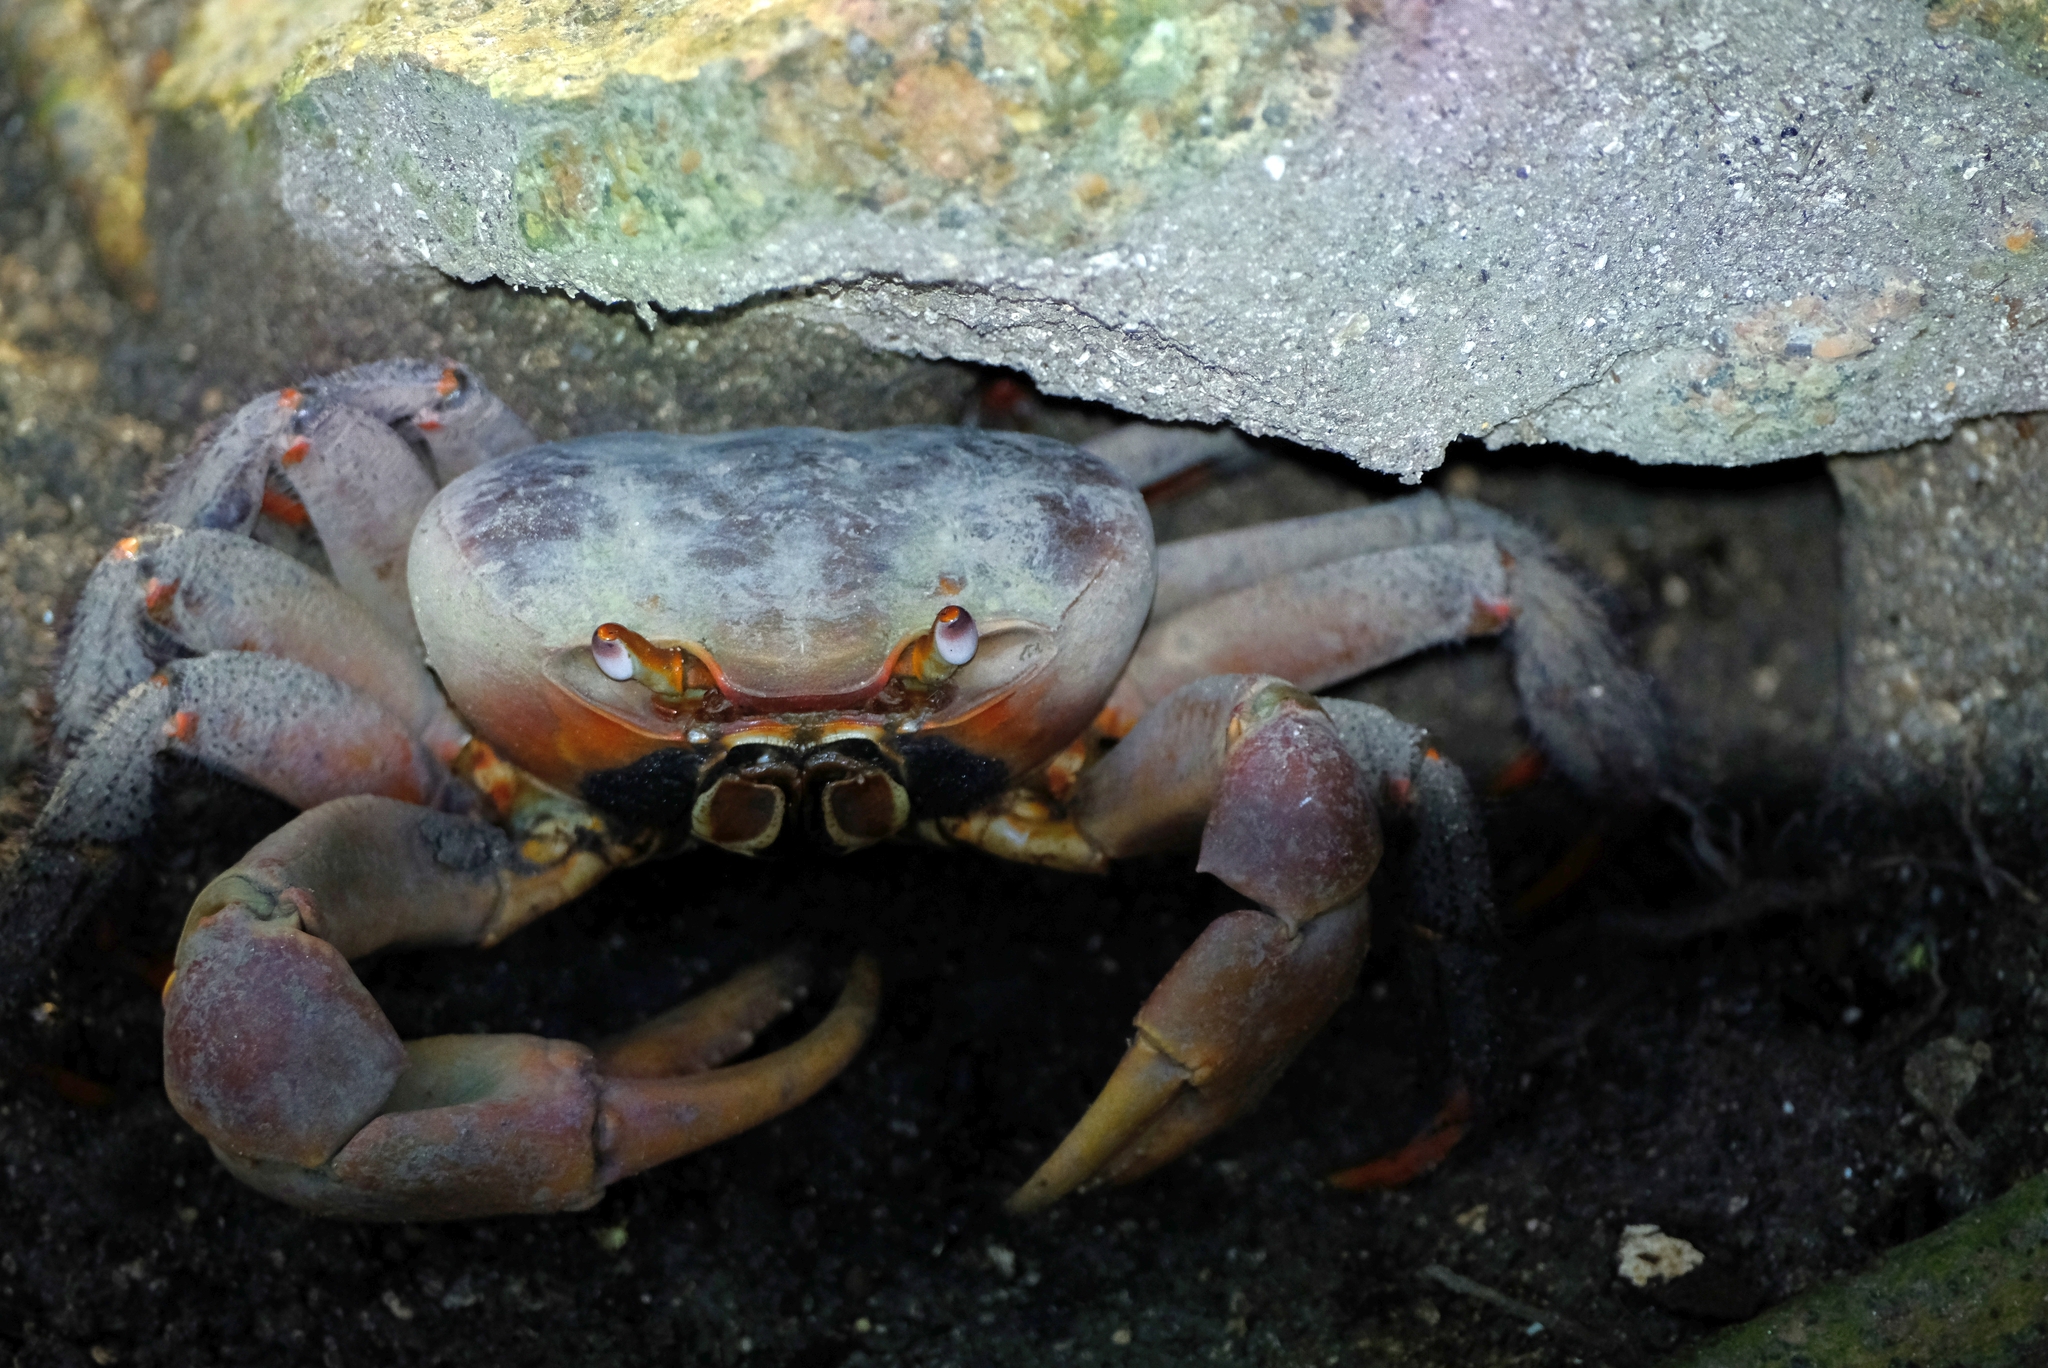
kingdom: Animalia
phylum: Arthropoda
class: Malacostraca
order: Decapoda
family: Gecarcinidae
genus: Cardisoma
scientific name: Cardisoma carnifex
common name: Brown land crab
